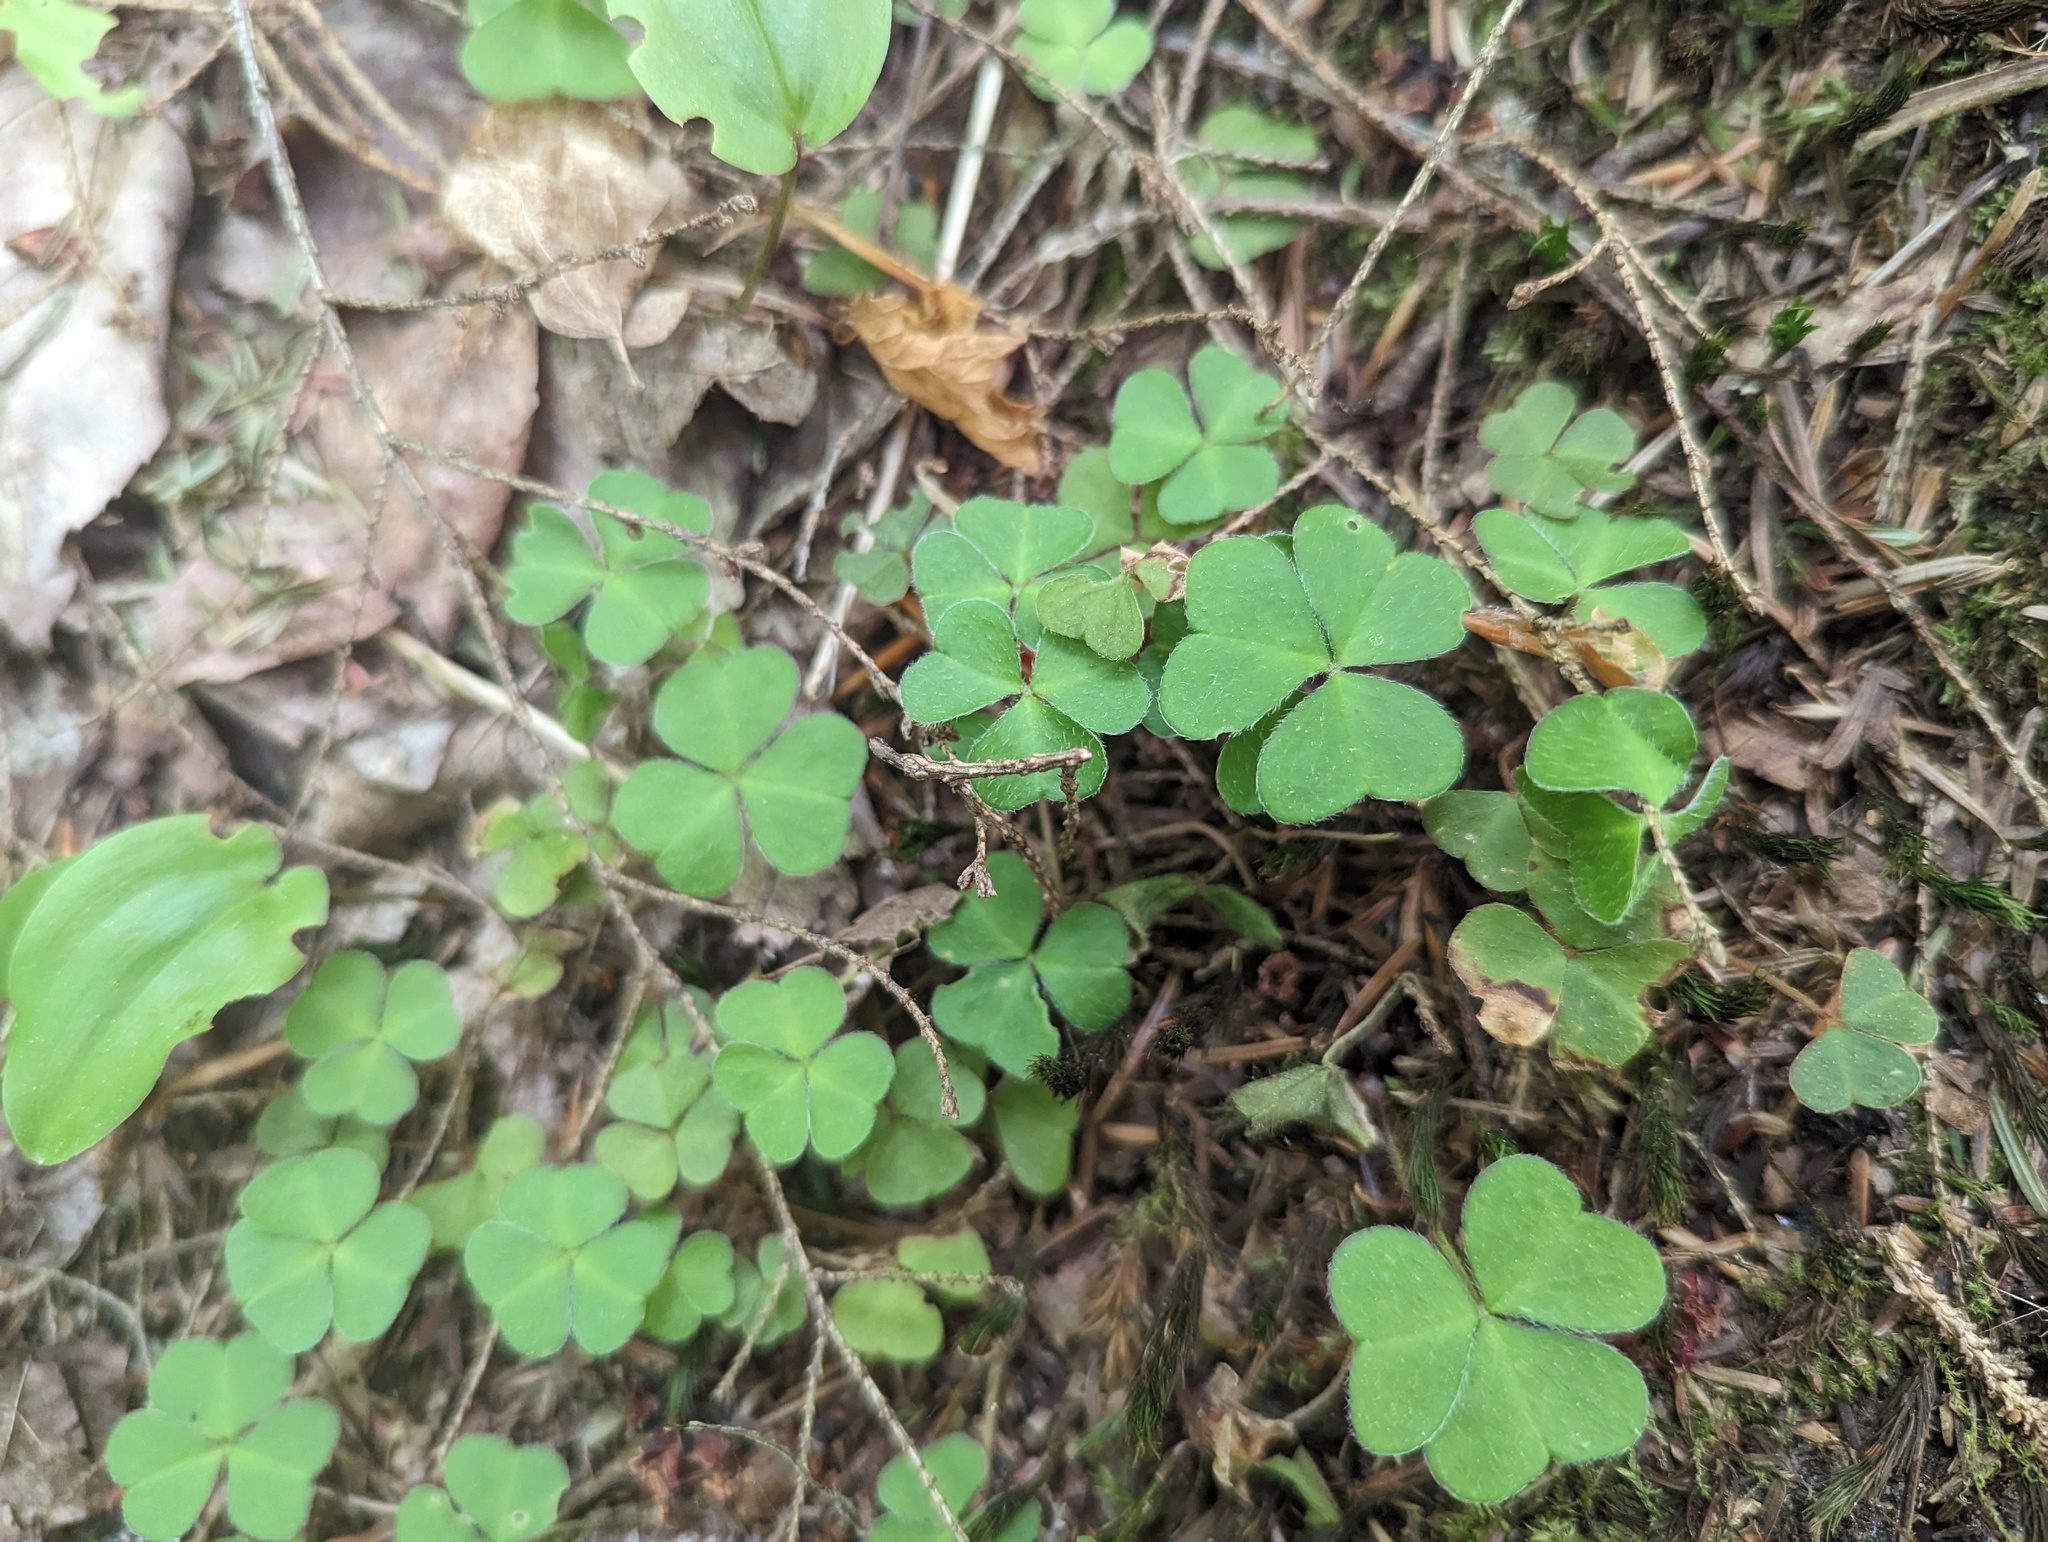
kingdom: Plantae
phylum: Tracheophyta
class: Magnoliopsida
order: Oxalidales
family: Oxalidaceae
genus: Oxalis
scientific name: Oxalis montana
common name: American wood-sorrel
